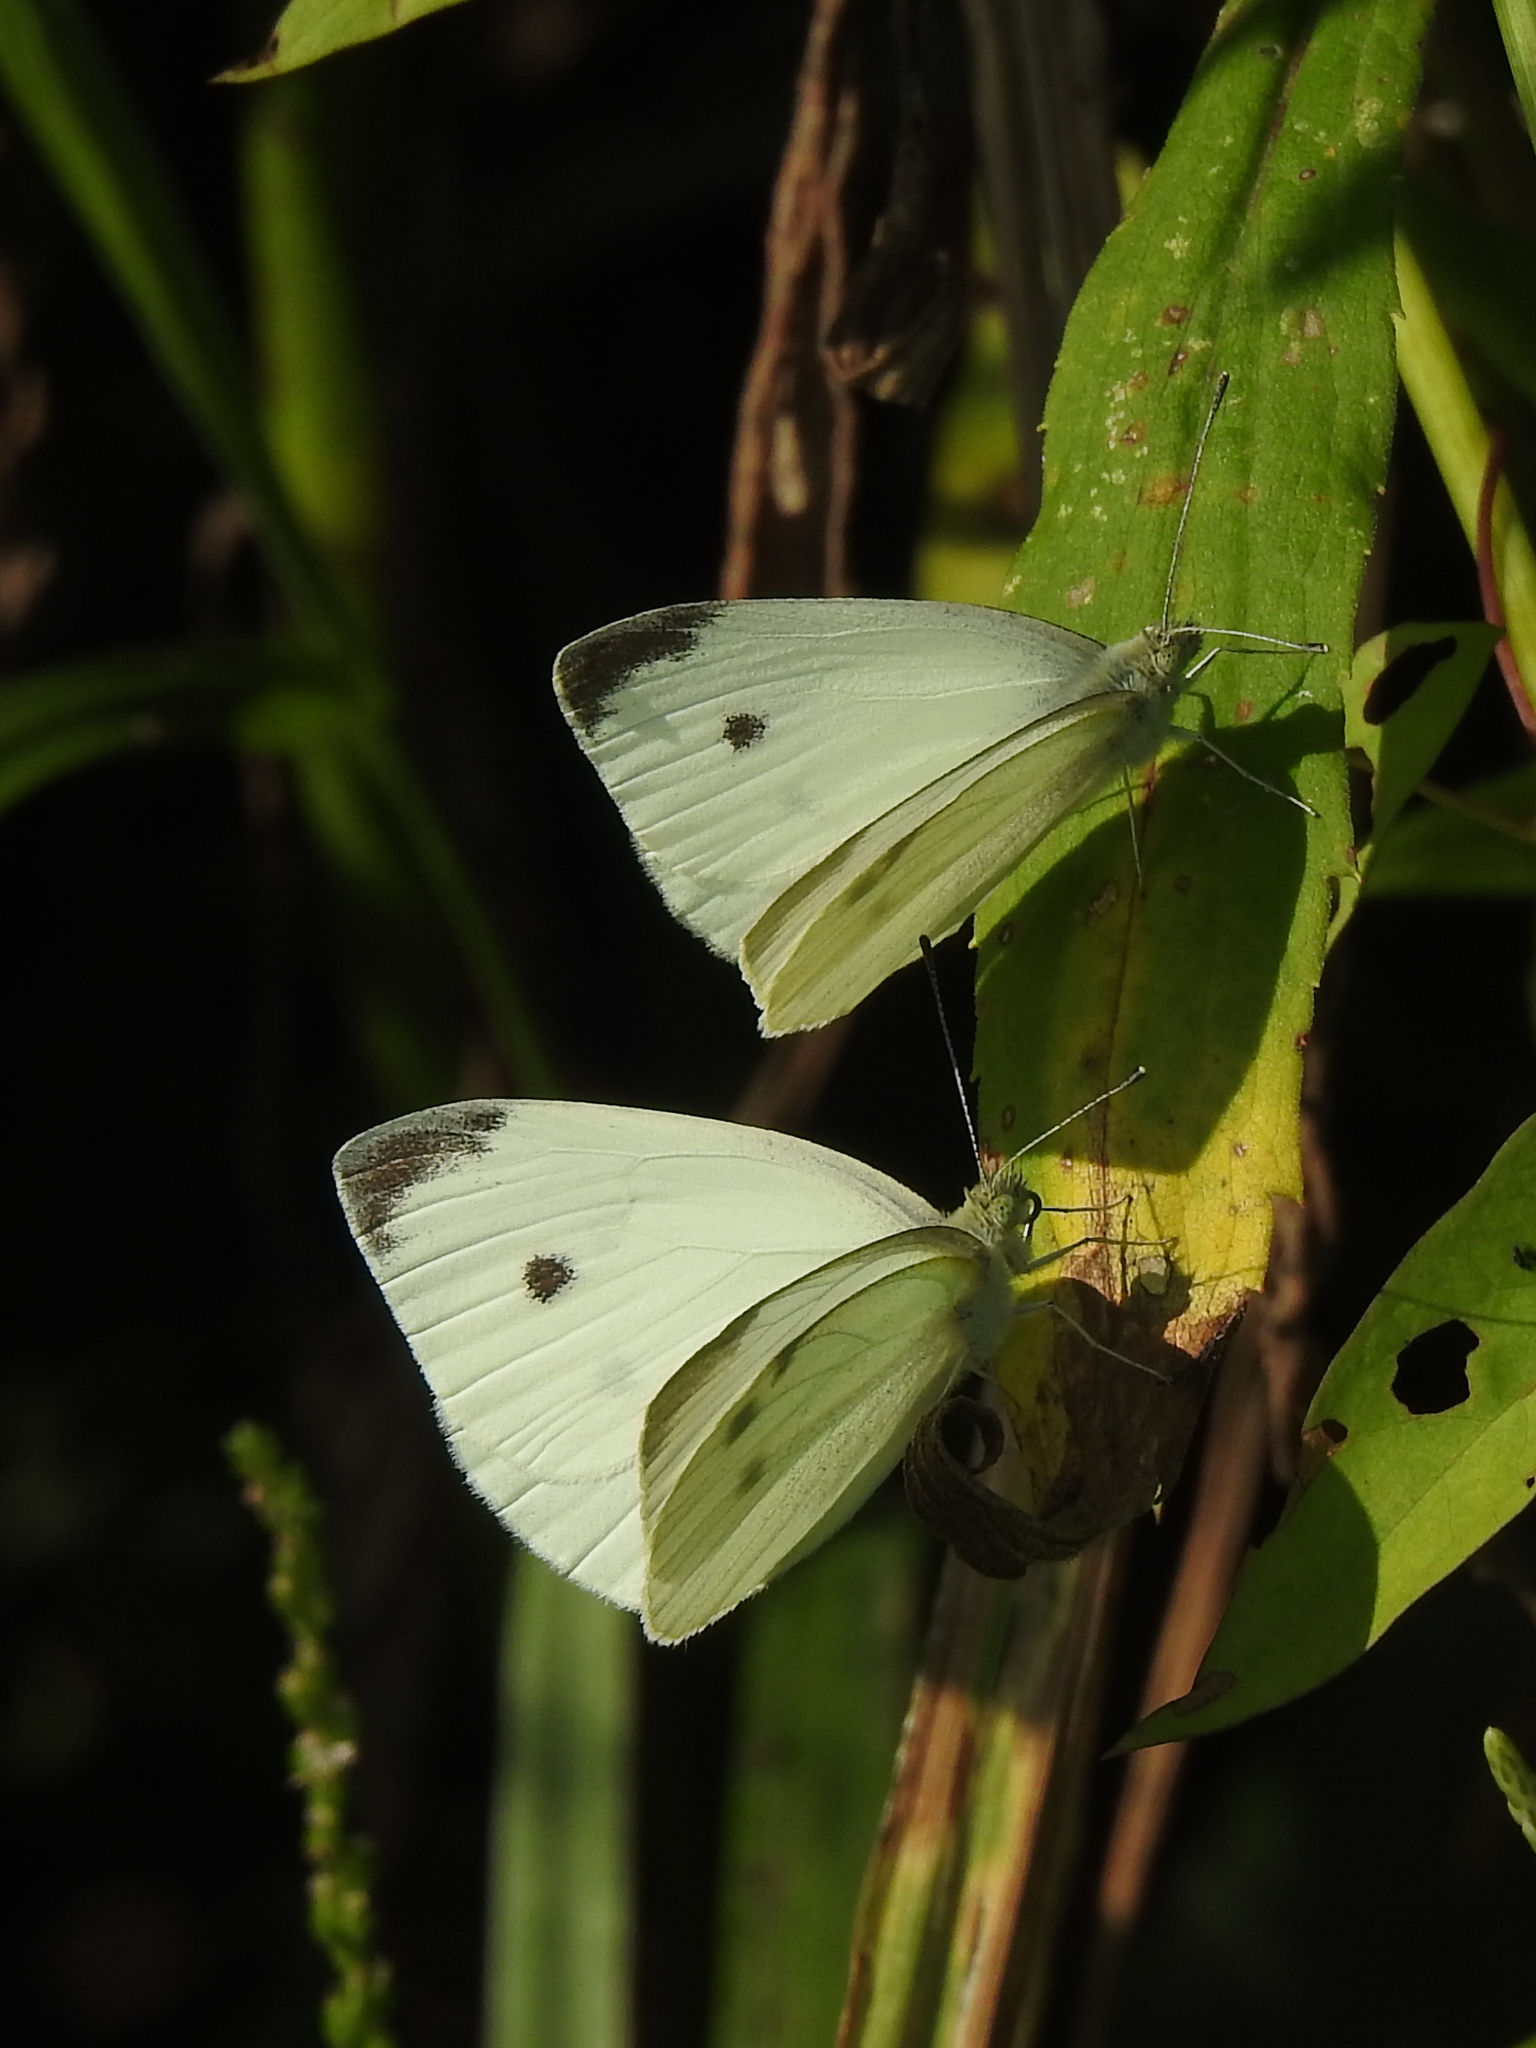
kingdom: Animalia
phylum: Arthropoda
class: Insecta
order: Lepidoptera
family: Pieridae
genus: Pieris
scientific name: Pieris rapae
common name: Small white
